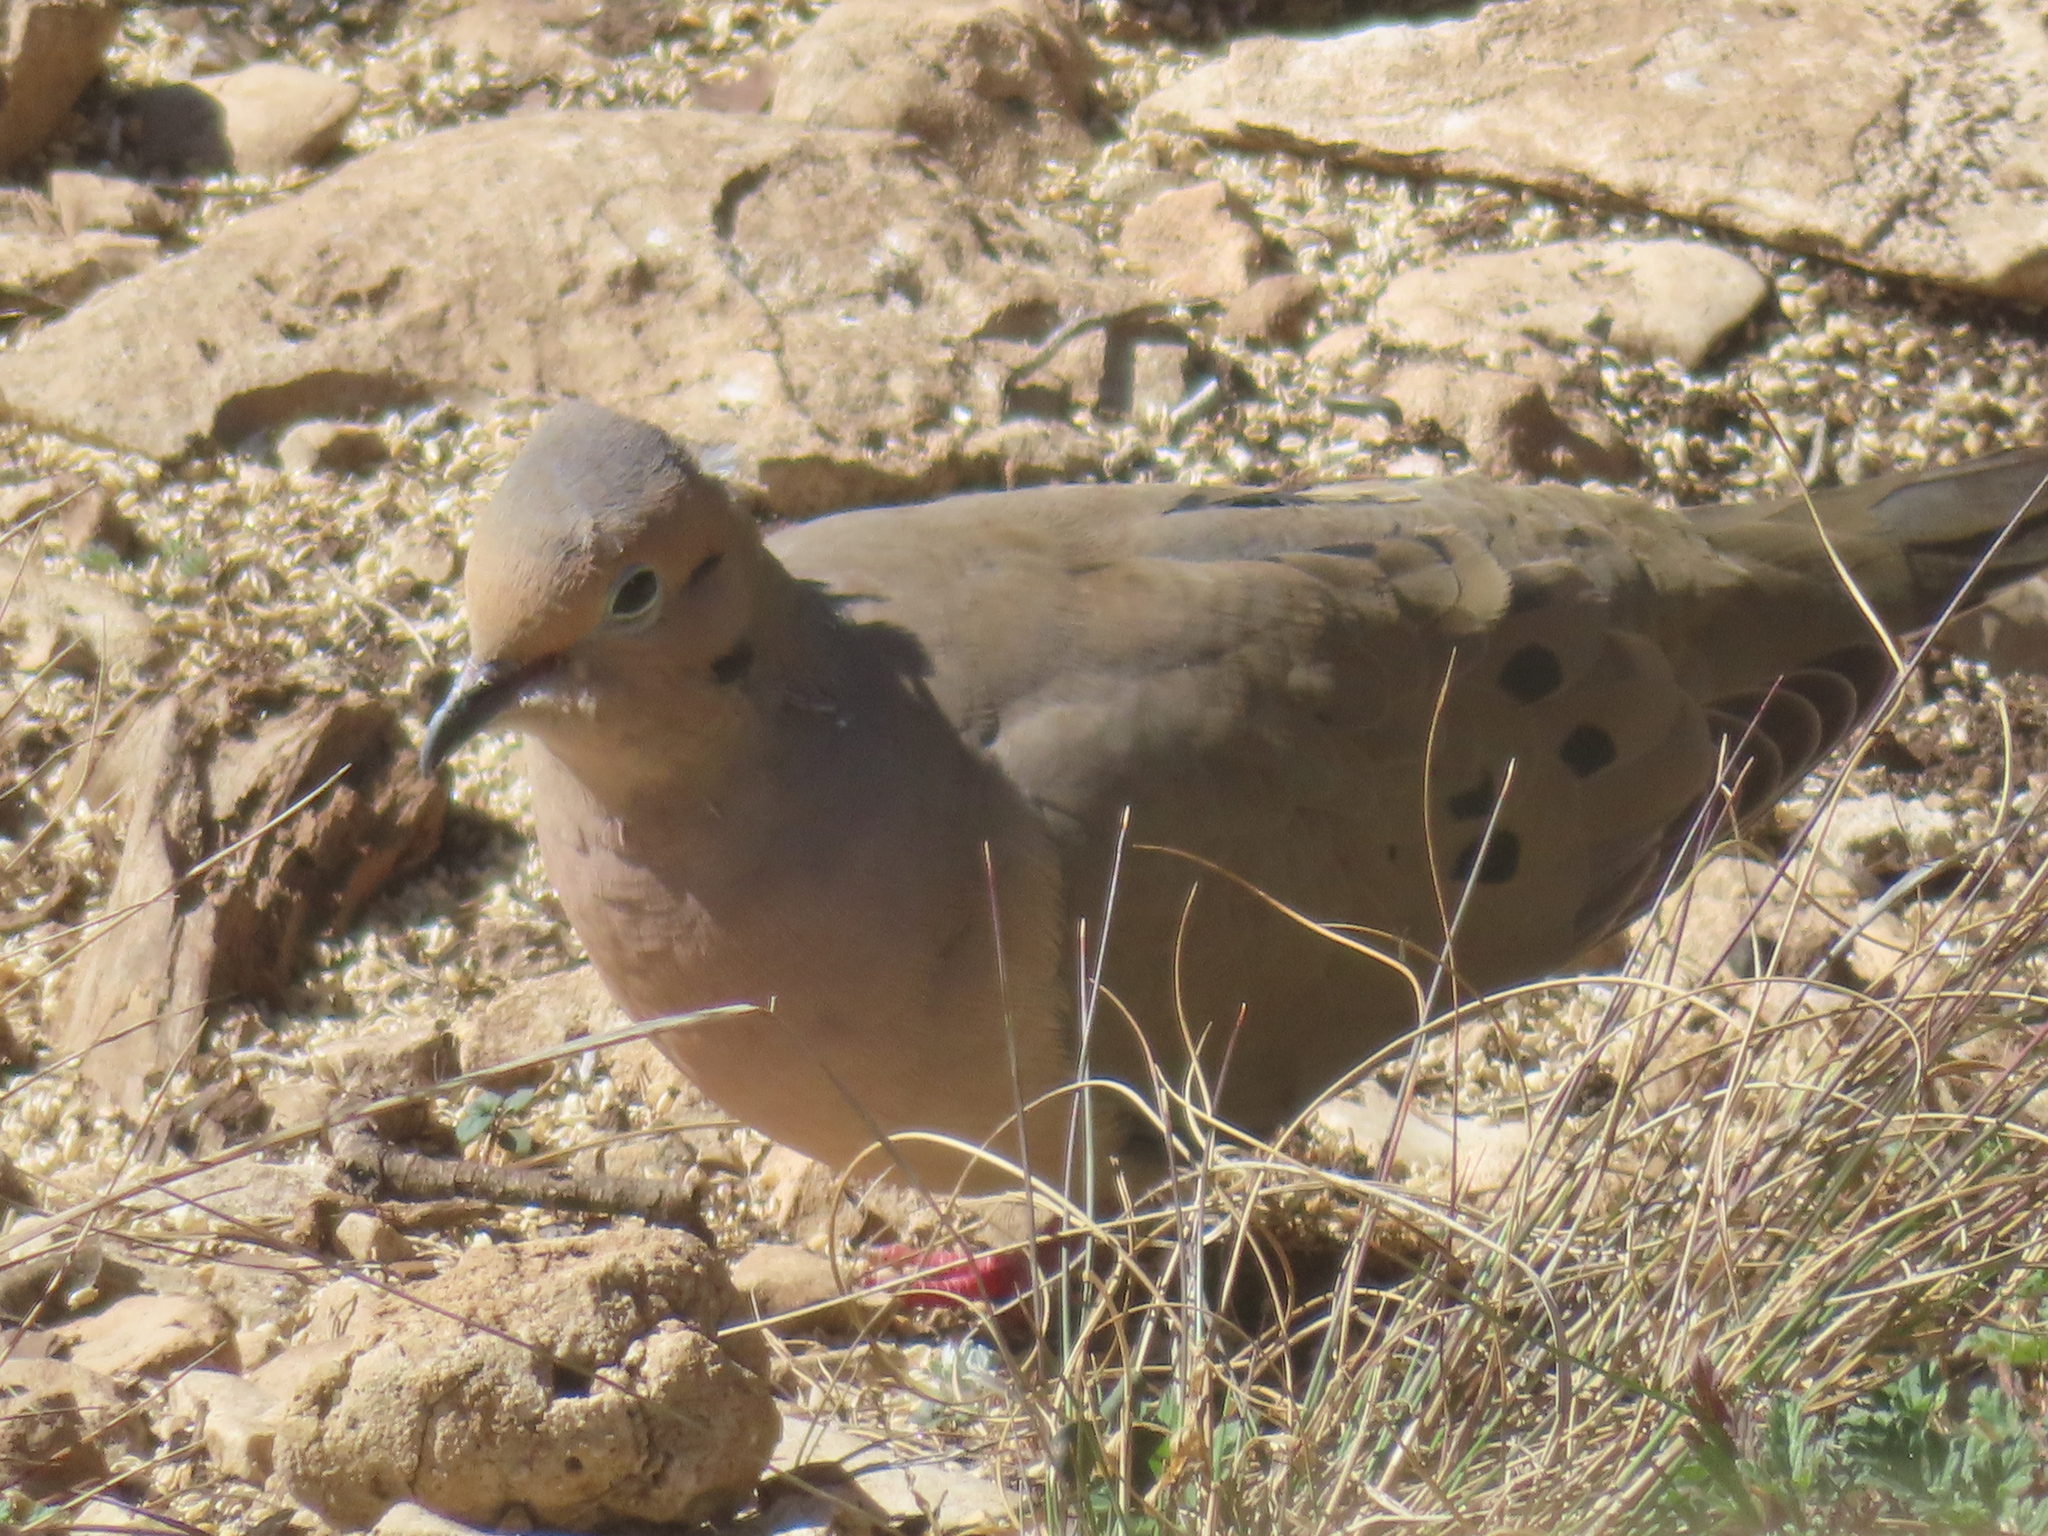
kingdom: Animalia
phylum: Chordata
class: Aves
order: Columbiformes
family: Columbidae
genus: Zenaida
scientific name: Zenaida macroura
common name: Mourning dove
